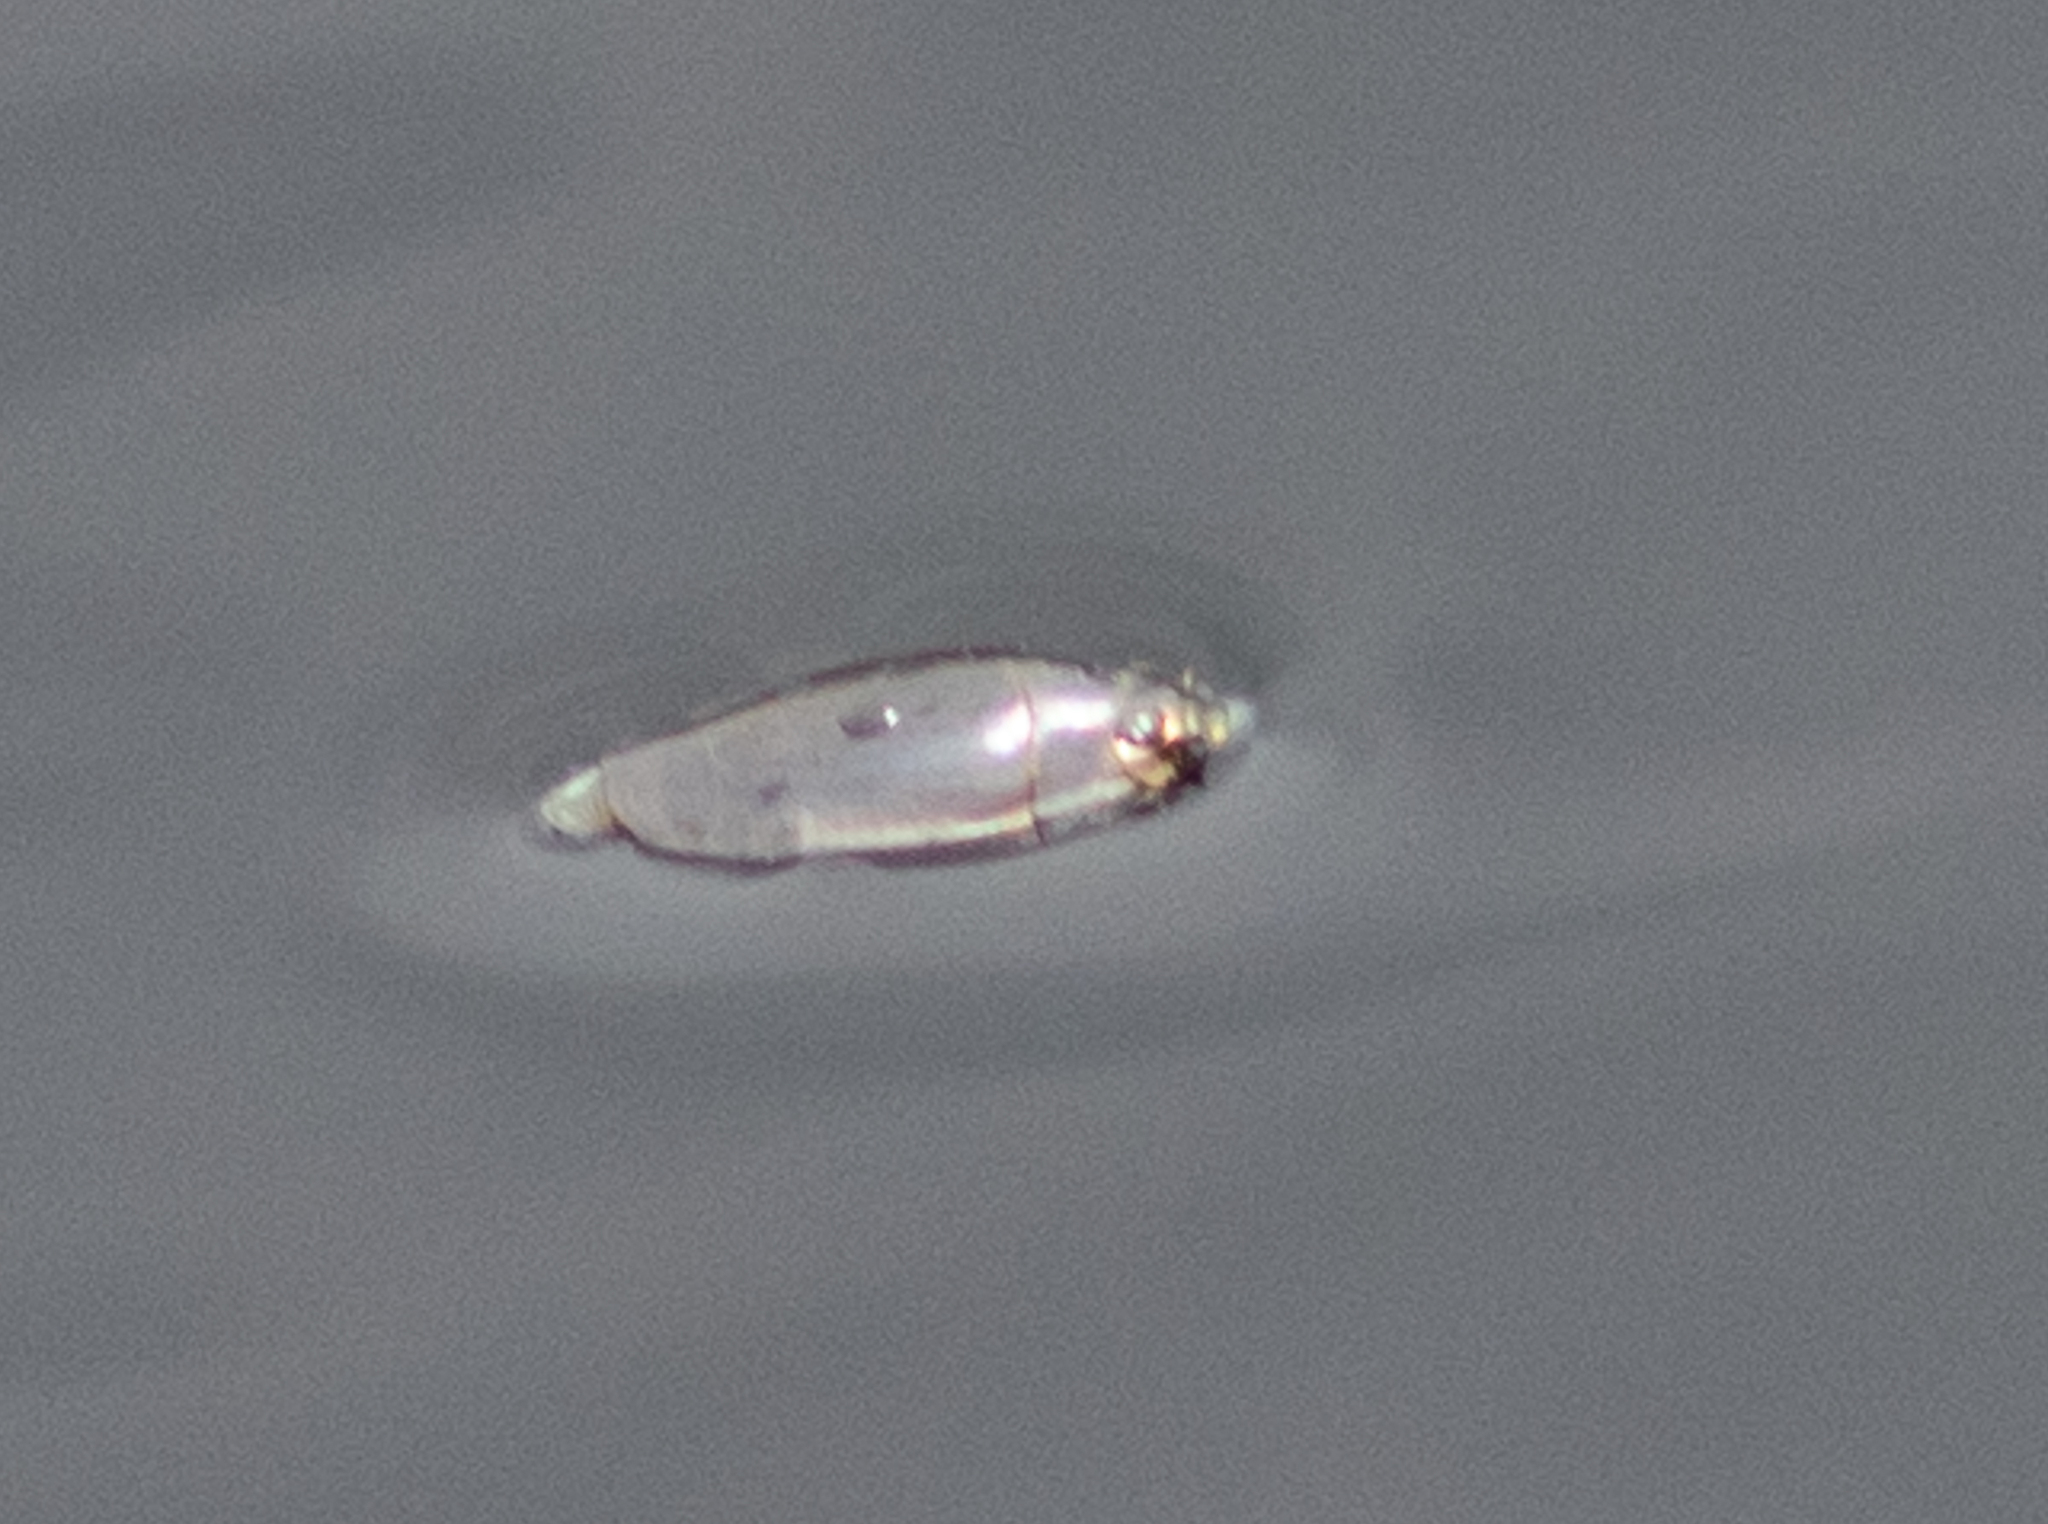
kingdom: Animalia
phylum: Arthropoda
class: Insecta
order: Coleoptera
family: Gyrinidae
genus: Dineutus
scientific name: Dineutus
